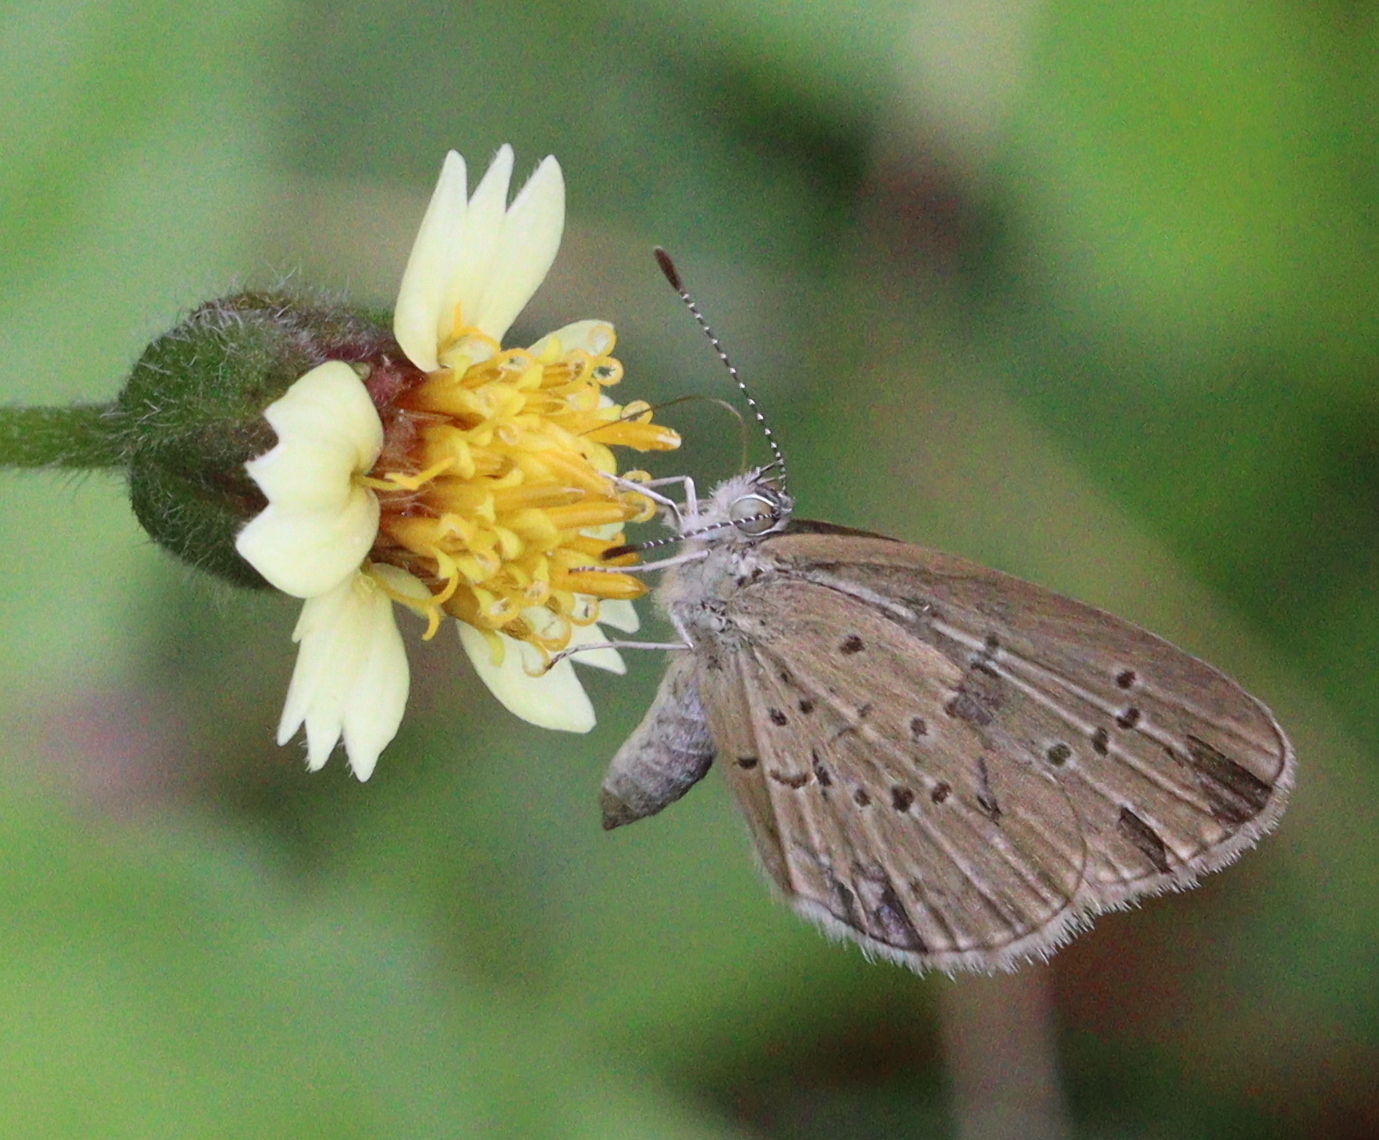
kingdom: Animalia
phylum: Arthropoda
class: Insecta
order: Lepidoptera
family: Lycaenidae
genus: Zizina
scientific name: Zizina otis
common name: Lesser grass blue
